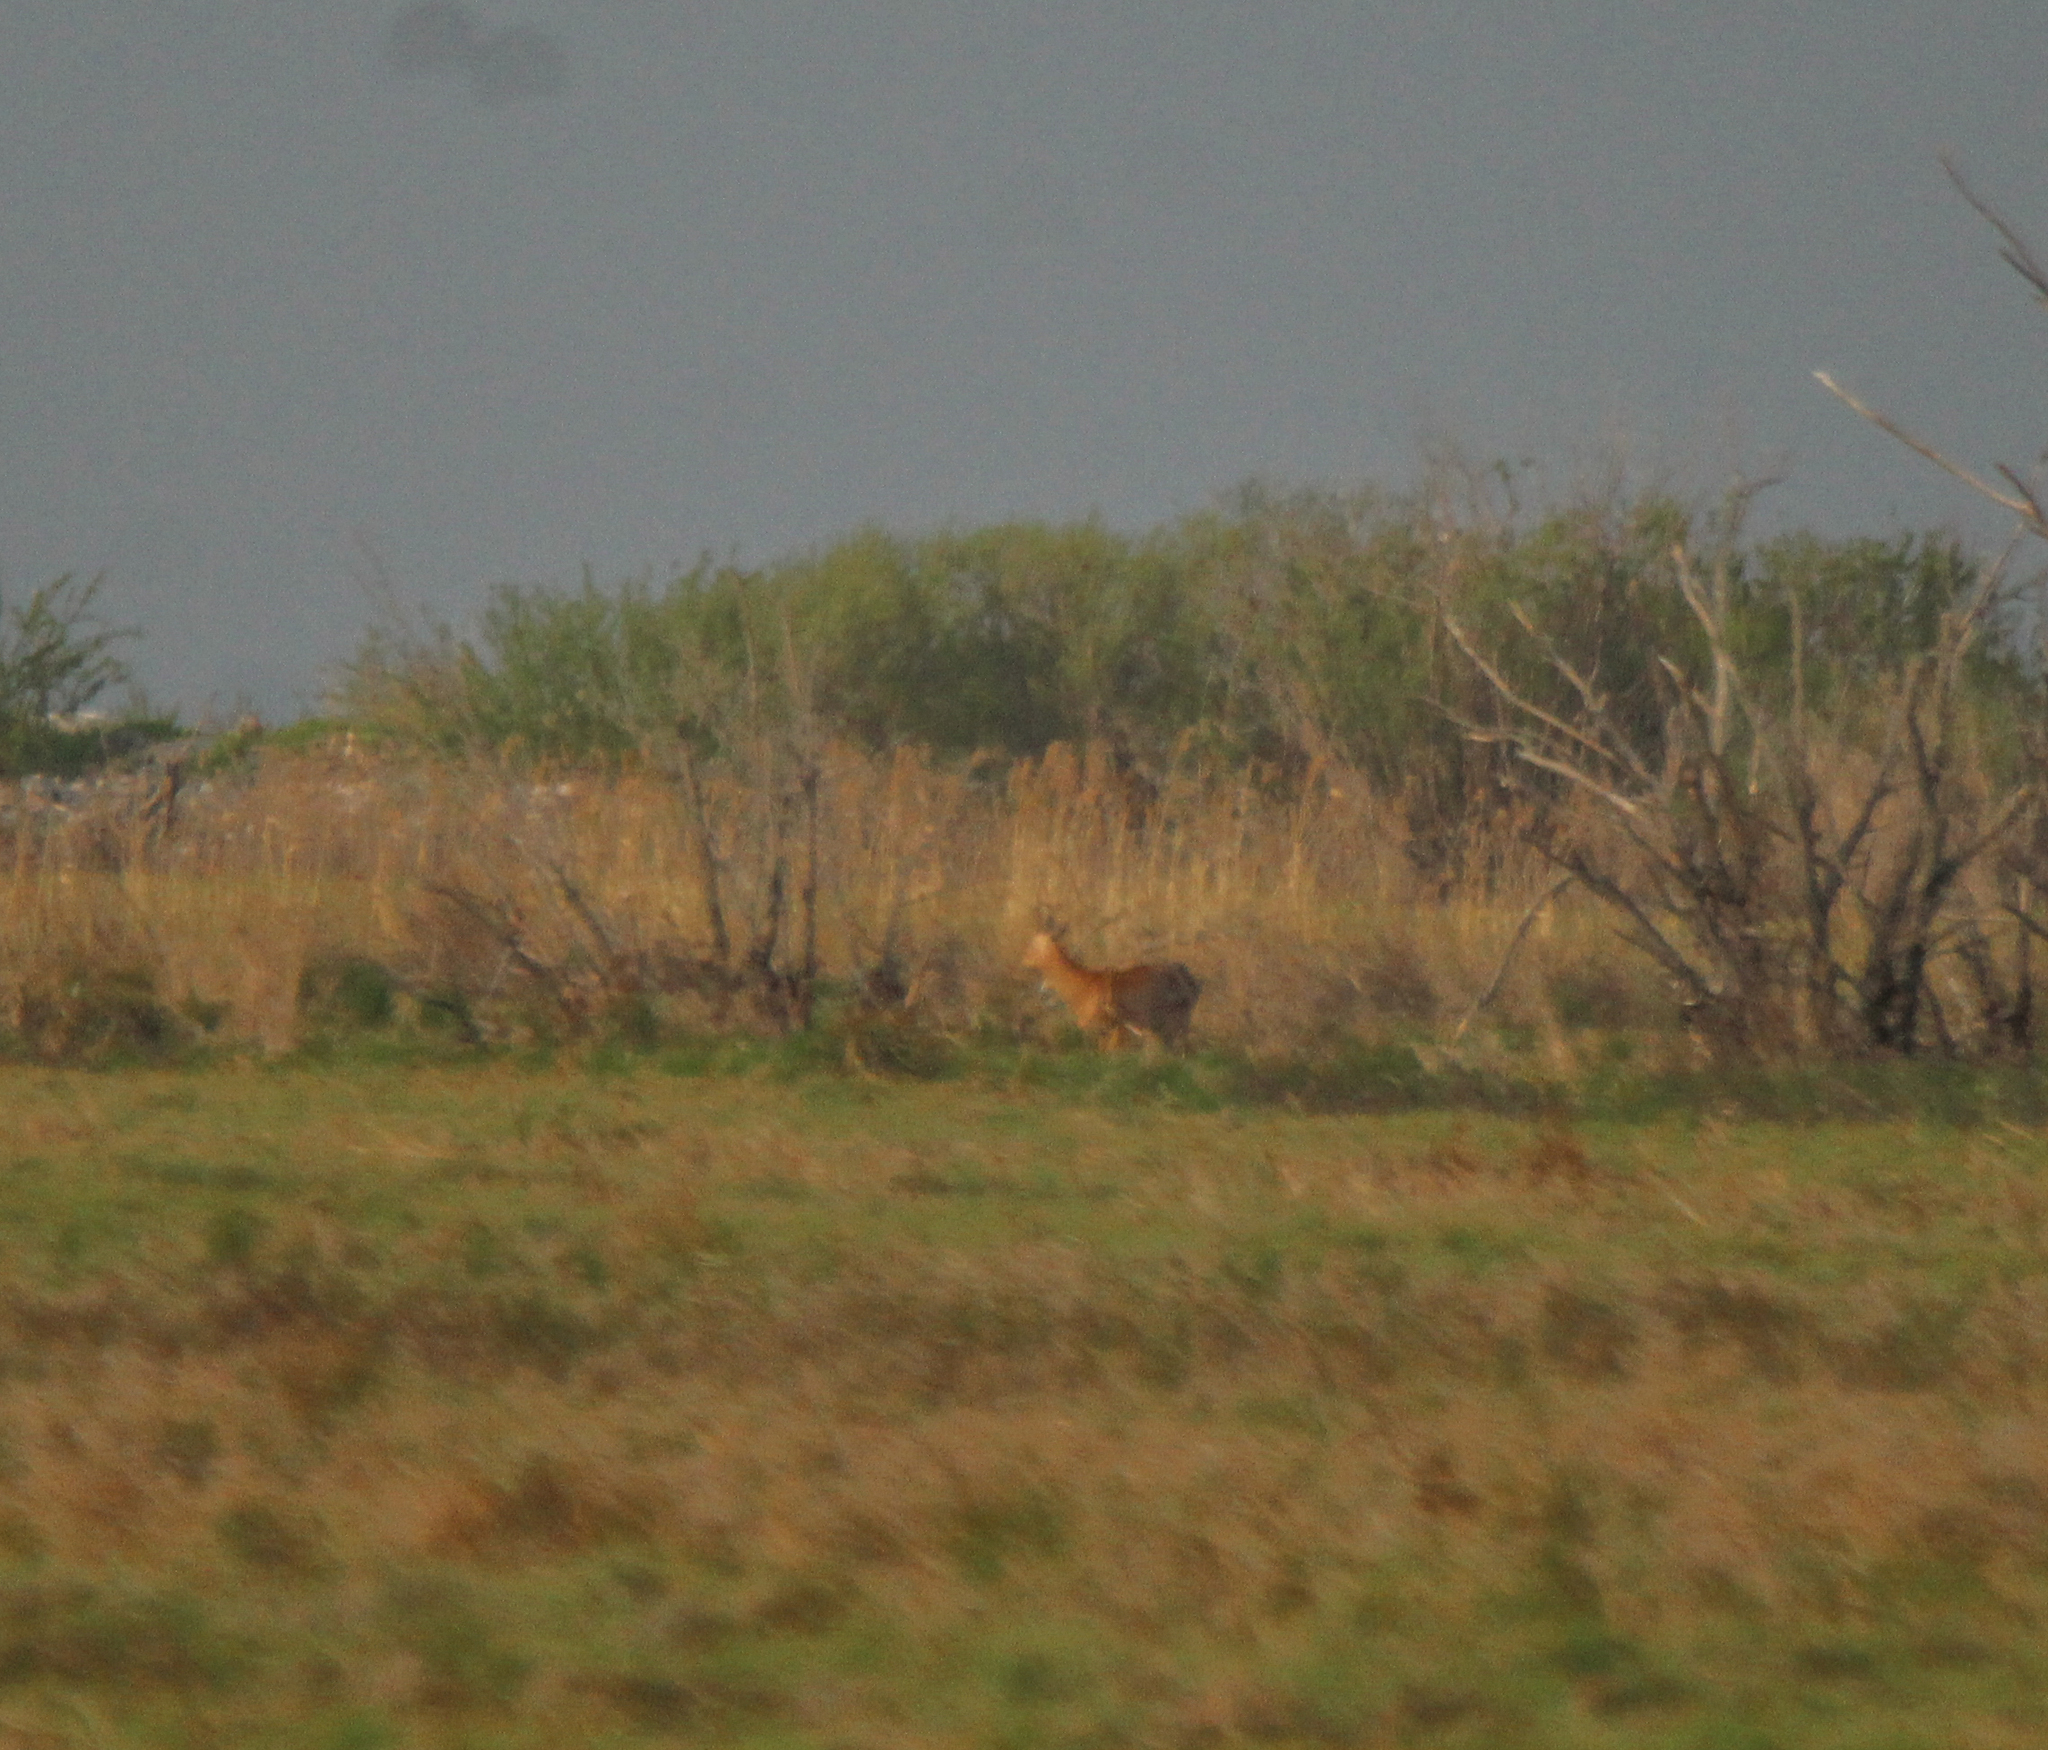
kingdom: Animalia
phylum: Chordata
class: Mammalia
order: Artiodactyla
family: Cervidae
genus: Capreolus
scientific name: Capreolus pygargus
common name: Siberian roe
